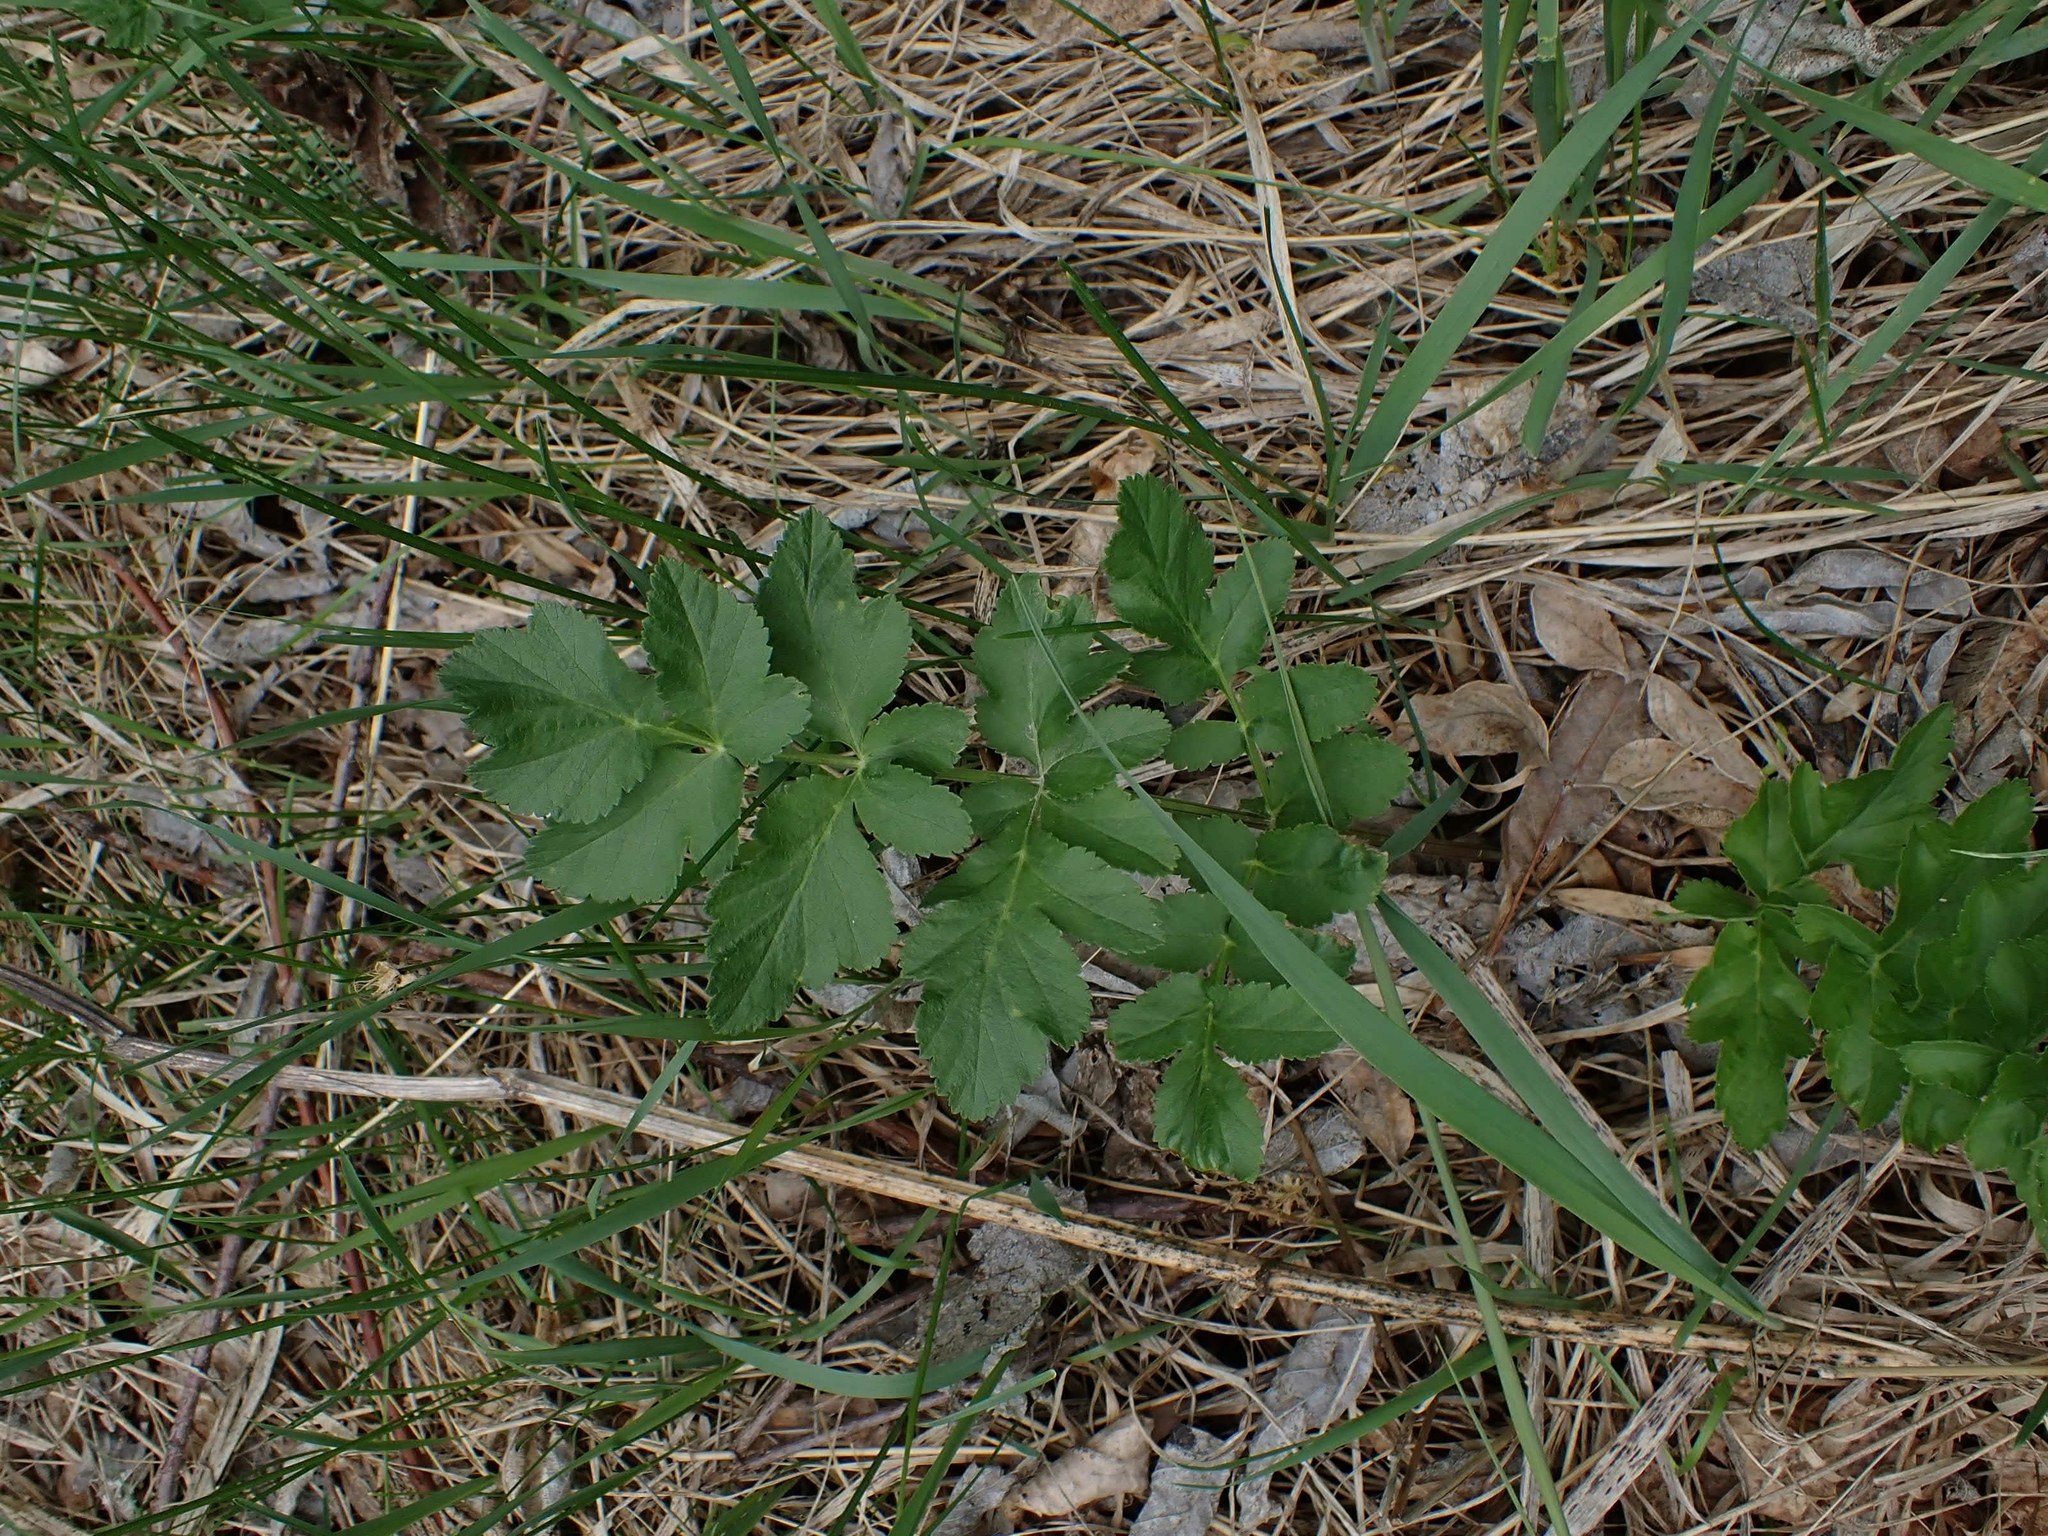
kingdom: Plantae
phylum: Tracheophyta
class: Magnoliopsida
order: Apiales
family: Apiaceae
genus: Pastinaca
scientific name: Pastinaca sativa
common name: Wild parsnip
